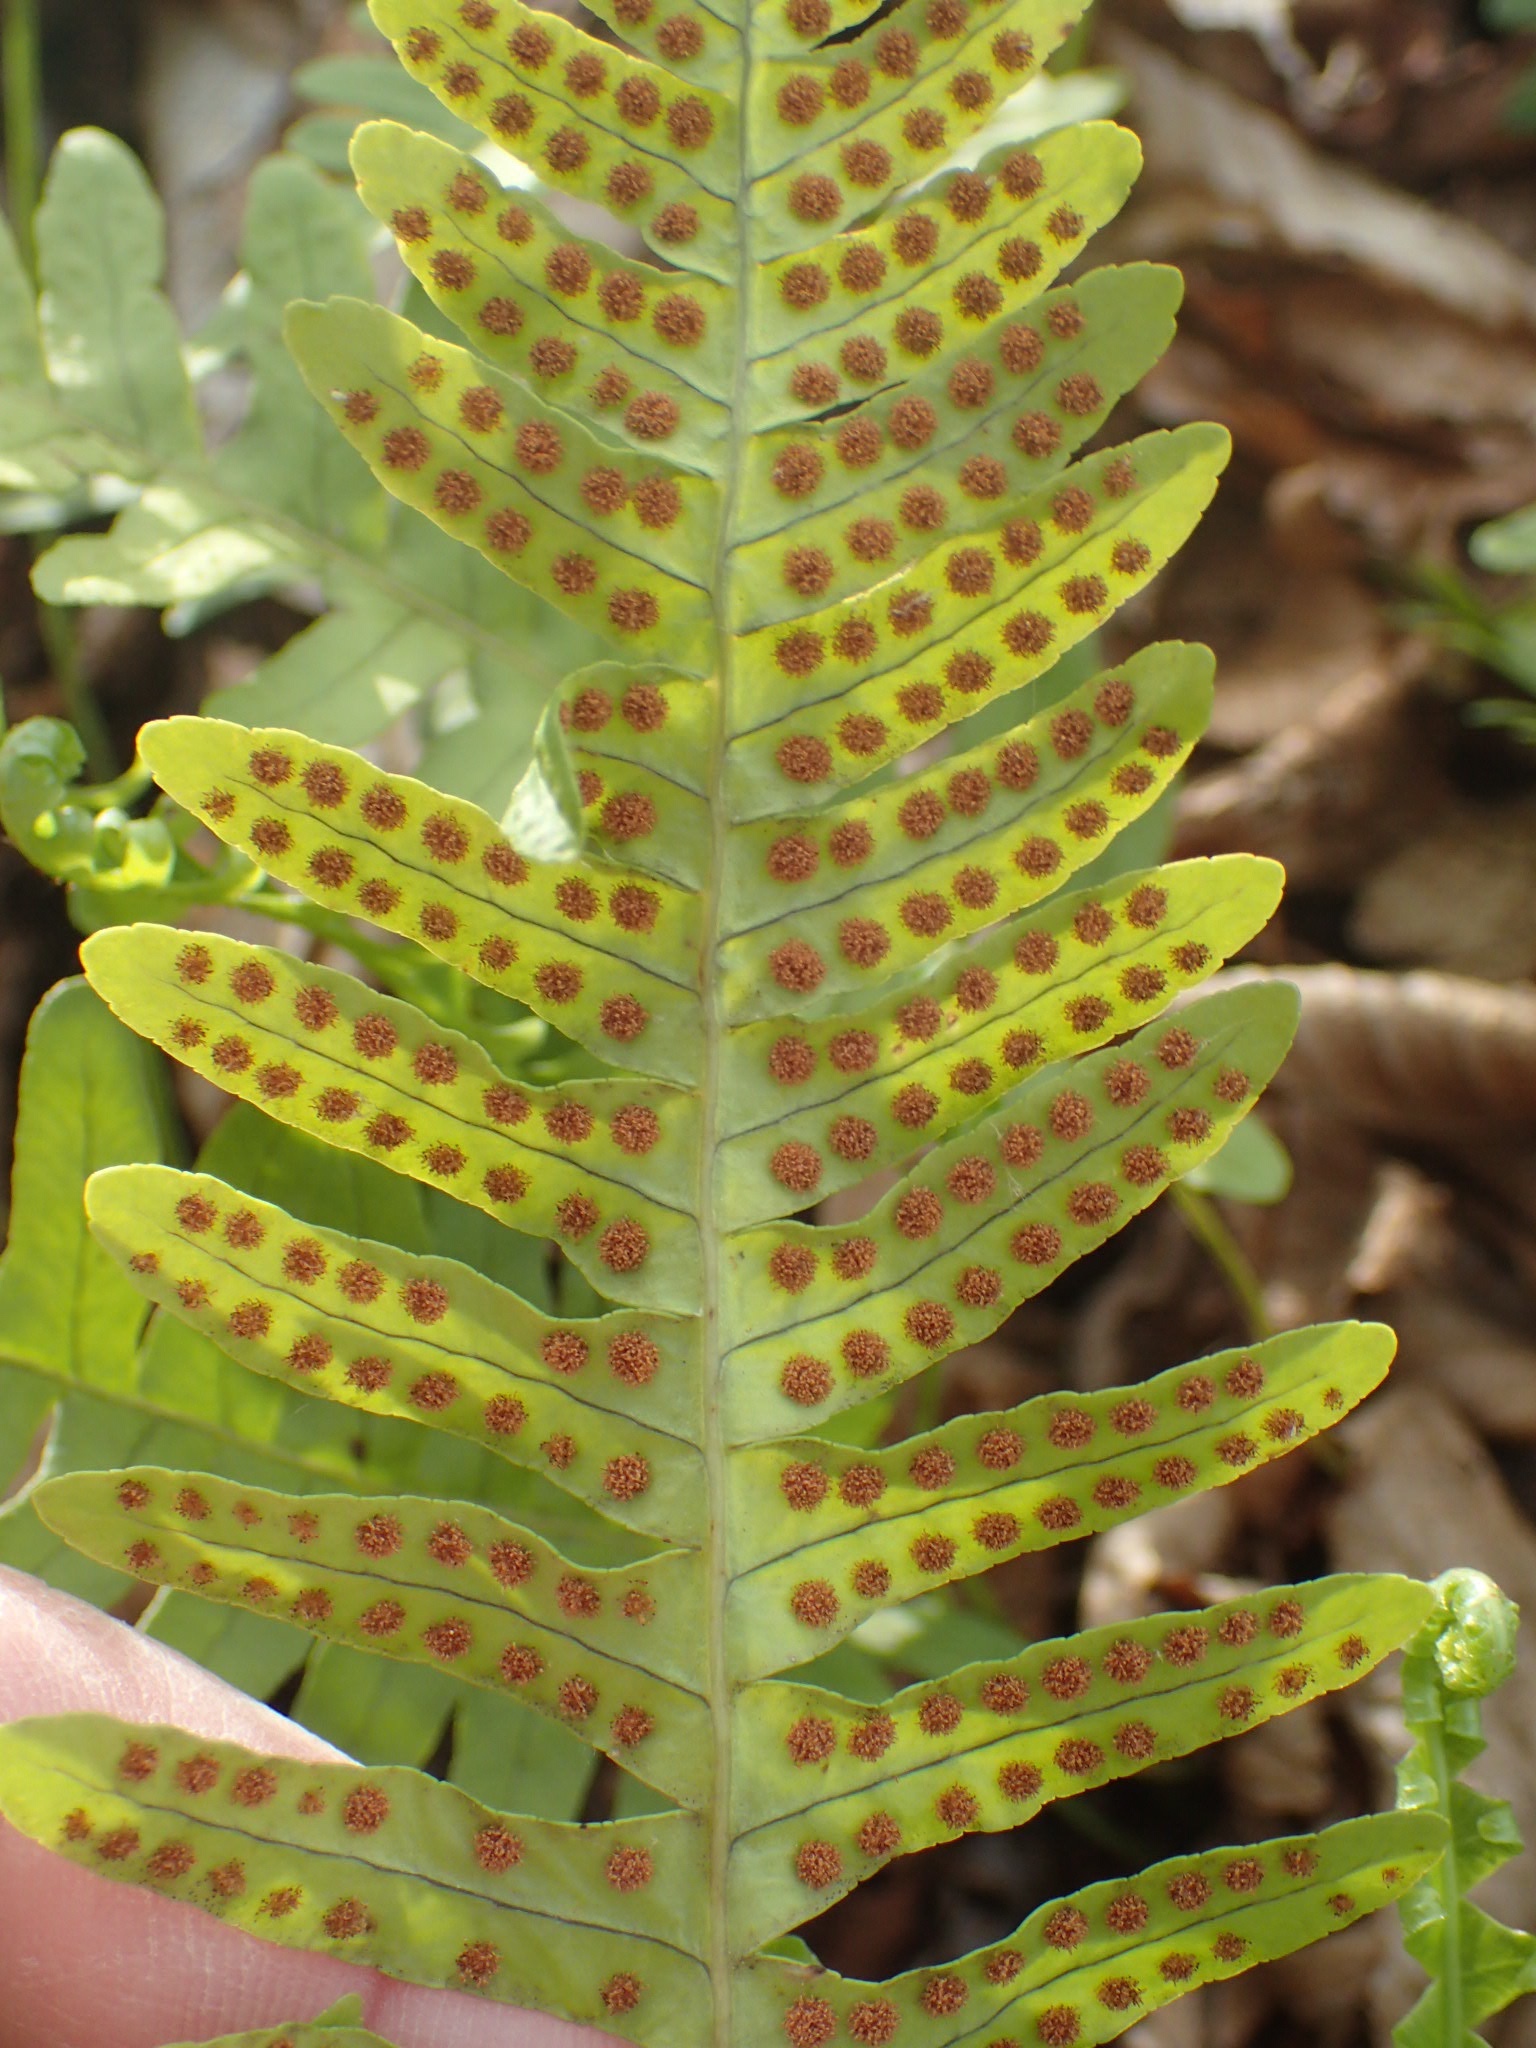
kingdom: Plantae
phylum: Tracheophyta
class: Polypodiopsida
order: Polypodiales
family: Polypodiaceae
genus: Polypodium
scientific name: Polypodium virginianum
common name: American wall fern
